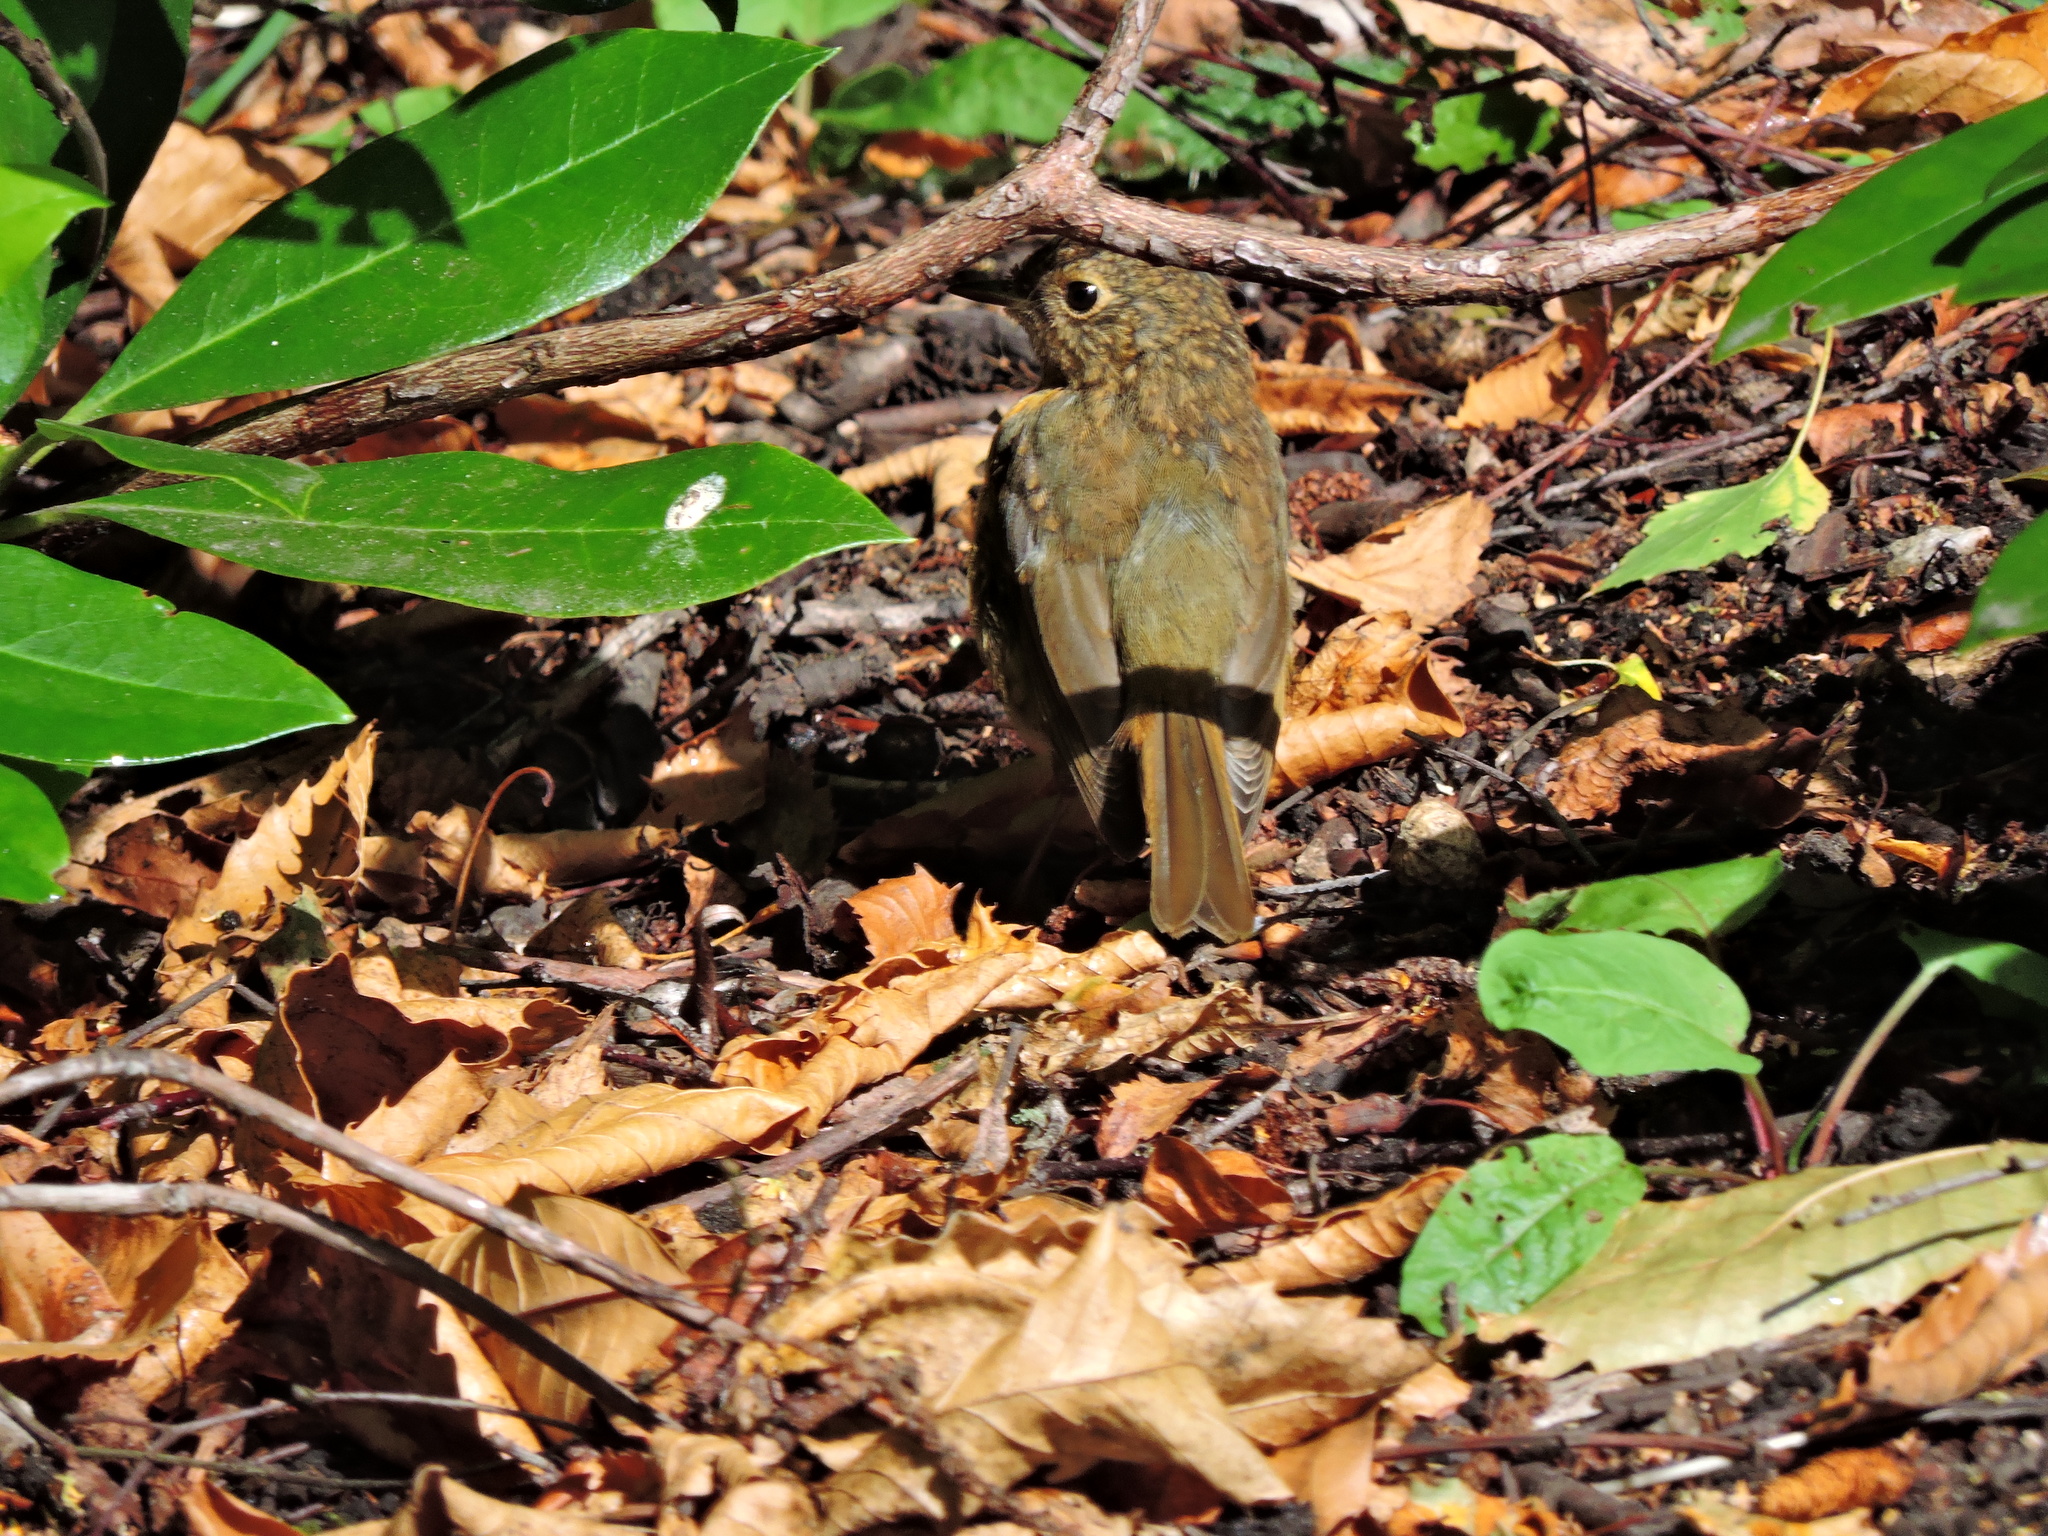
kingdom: Animalia
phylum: Chordata
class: Aves
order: Passeriformes
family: Muscicapidae
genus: Erithacus
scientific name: Erithacus rubecula
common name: European robin
